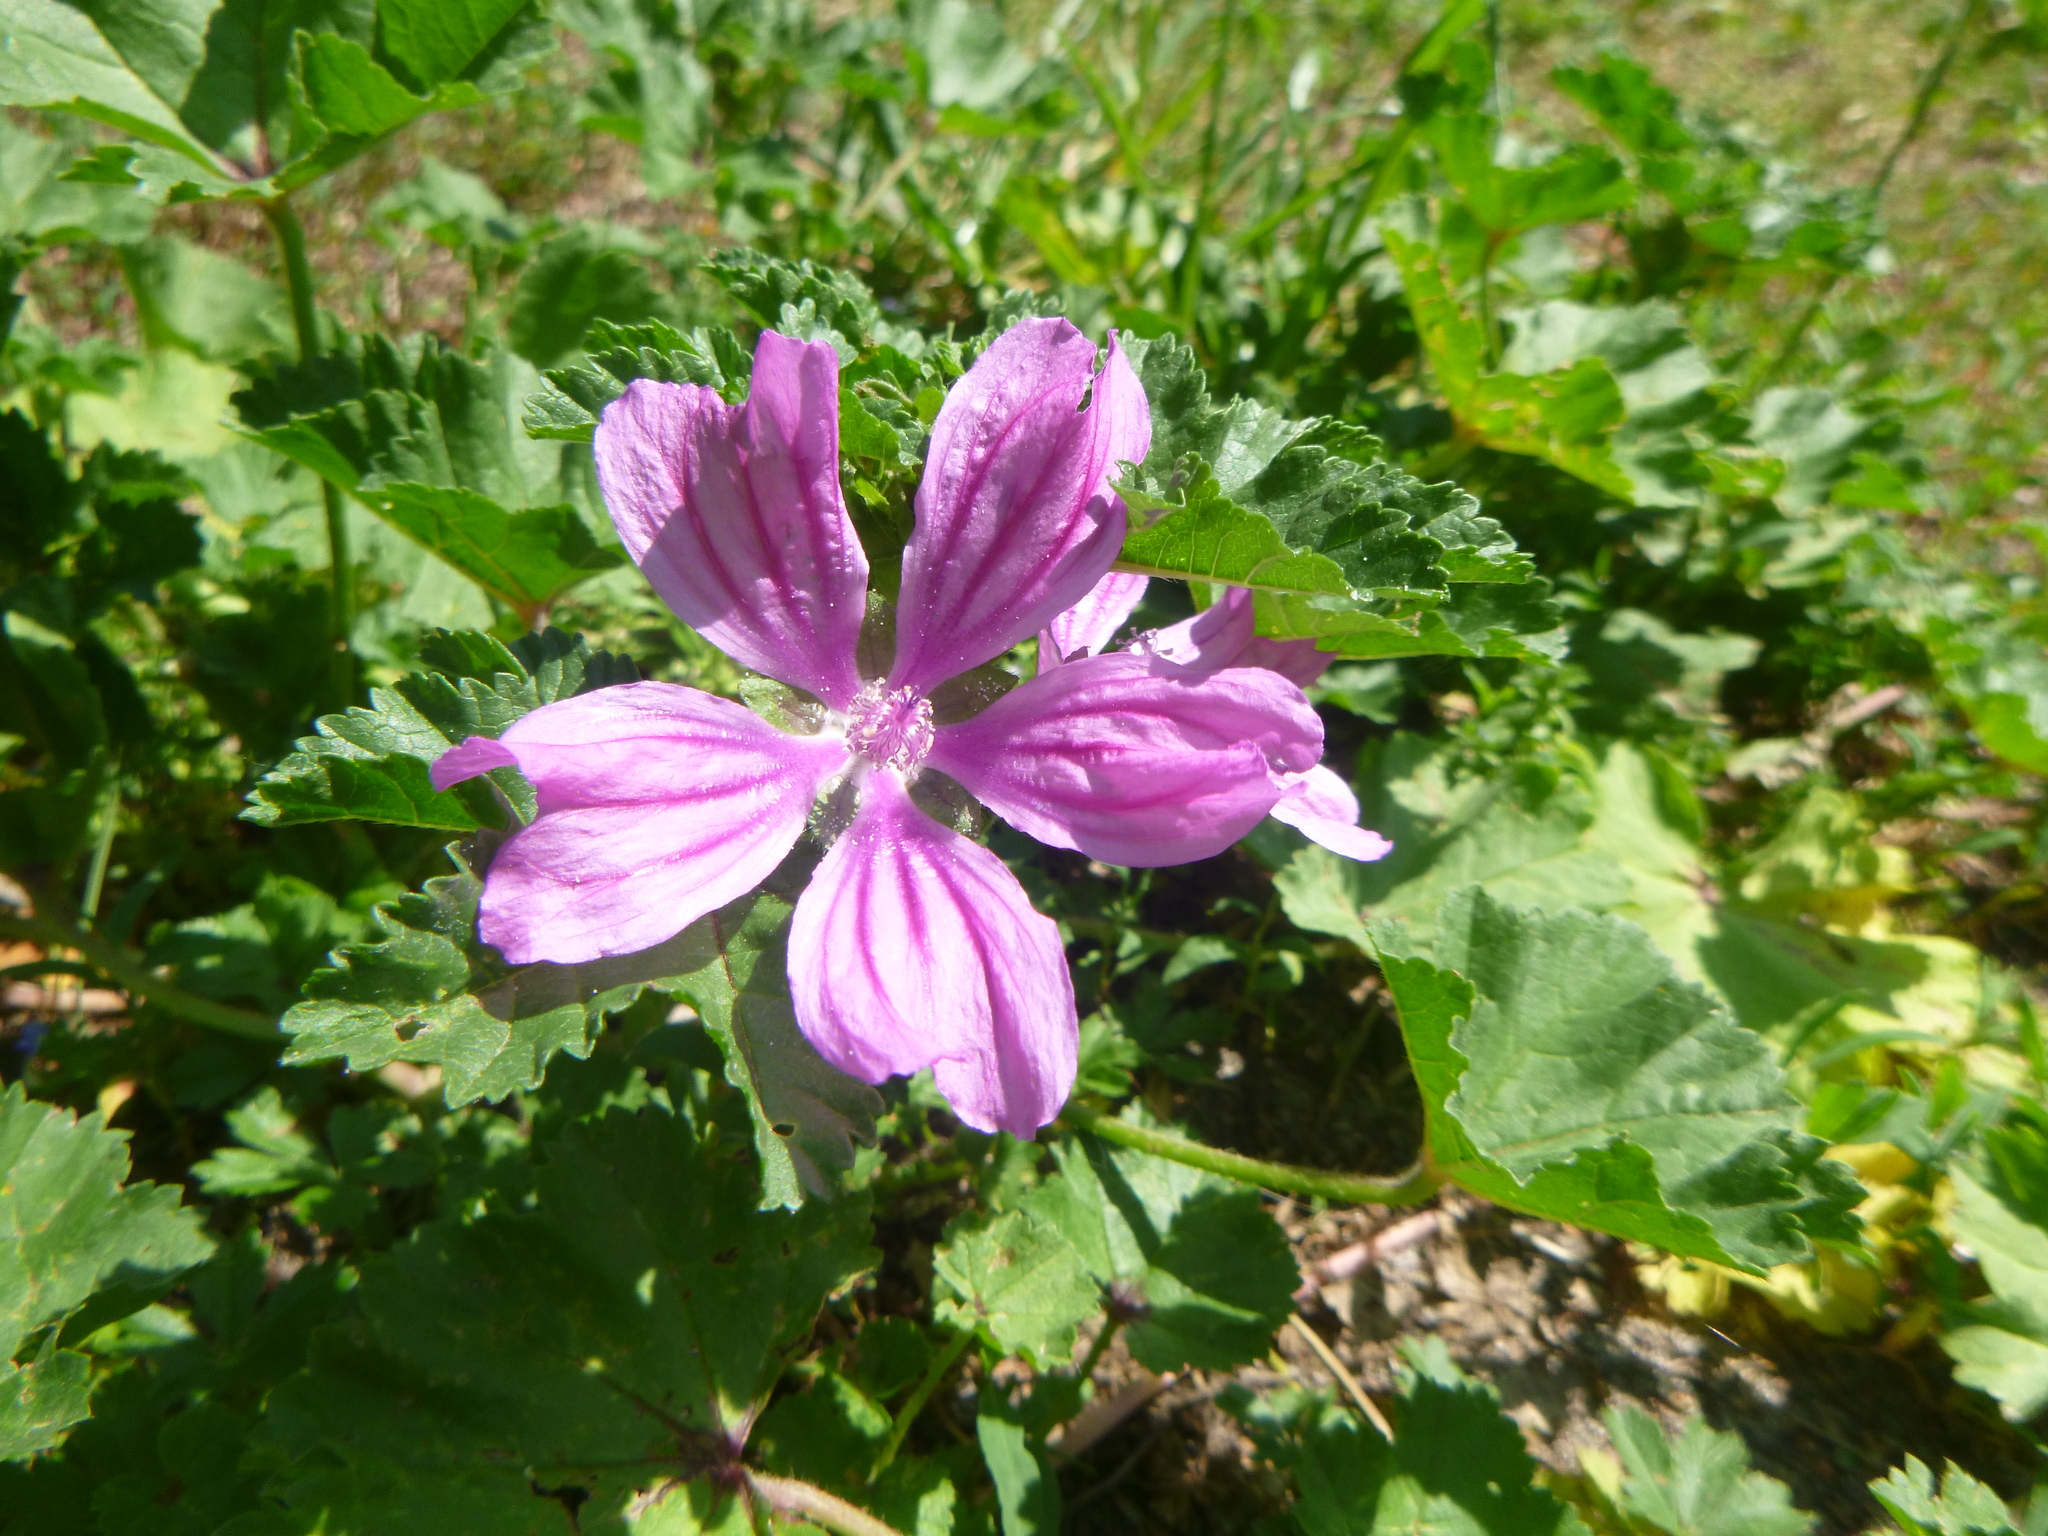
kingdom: Plantae
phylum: Tracheophyta
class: Magnoliopsida
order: Malvales
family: Malvaceae
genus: Malva
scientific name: Malva sylvestris
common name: Common mallow
